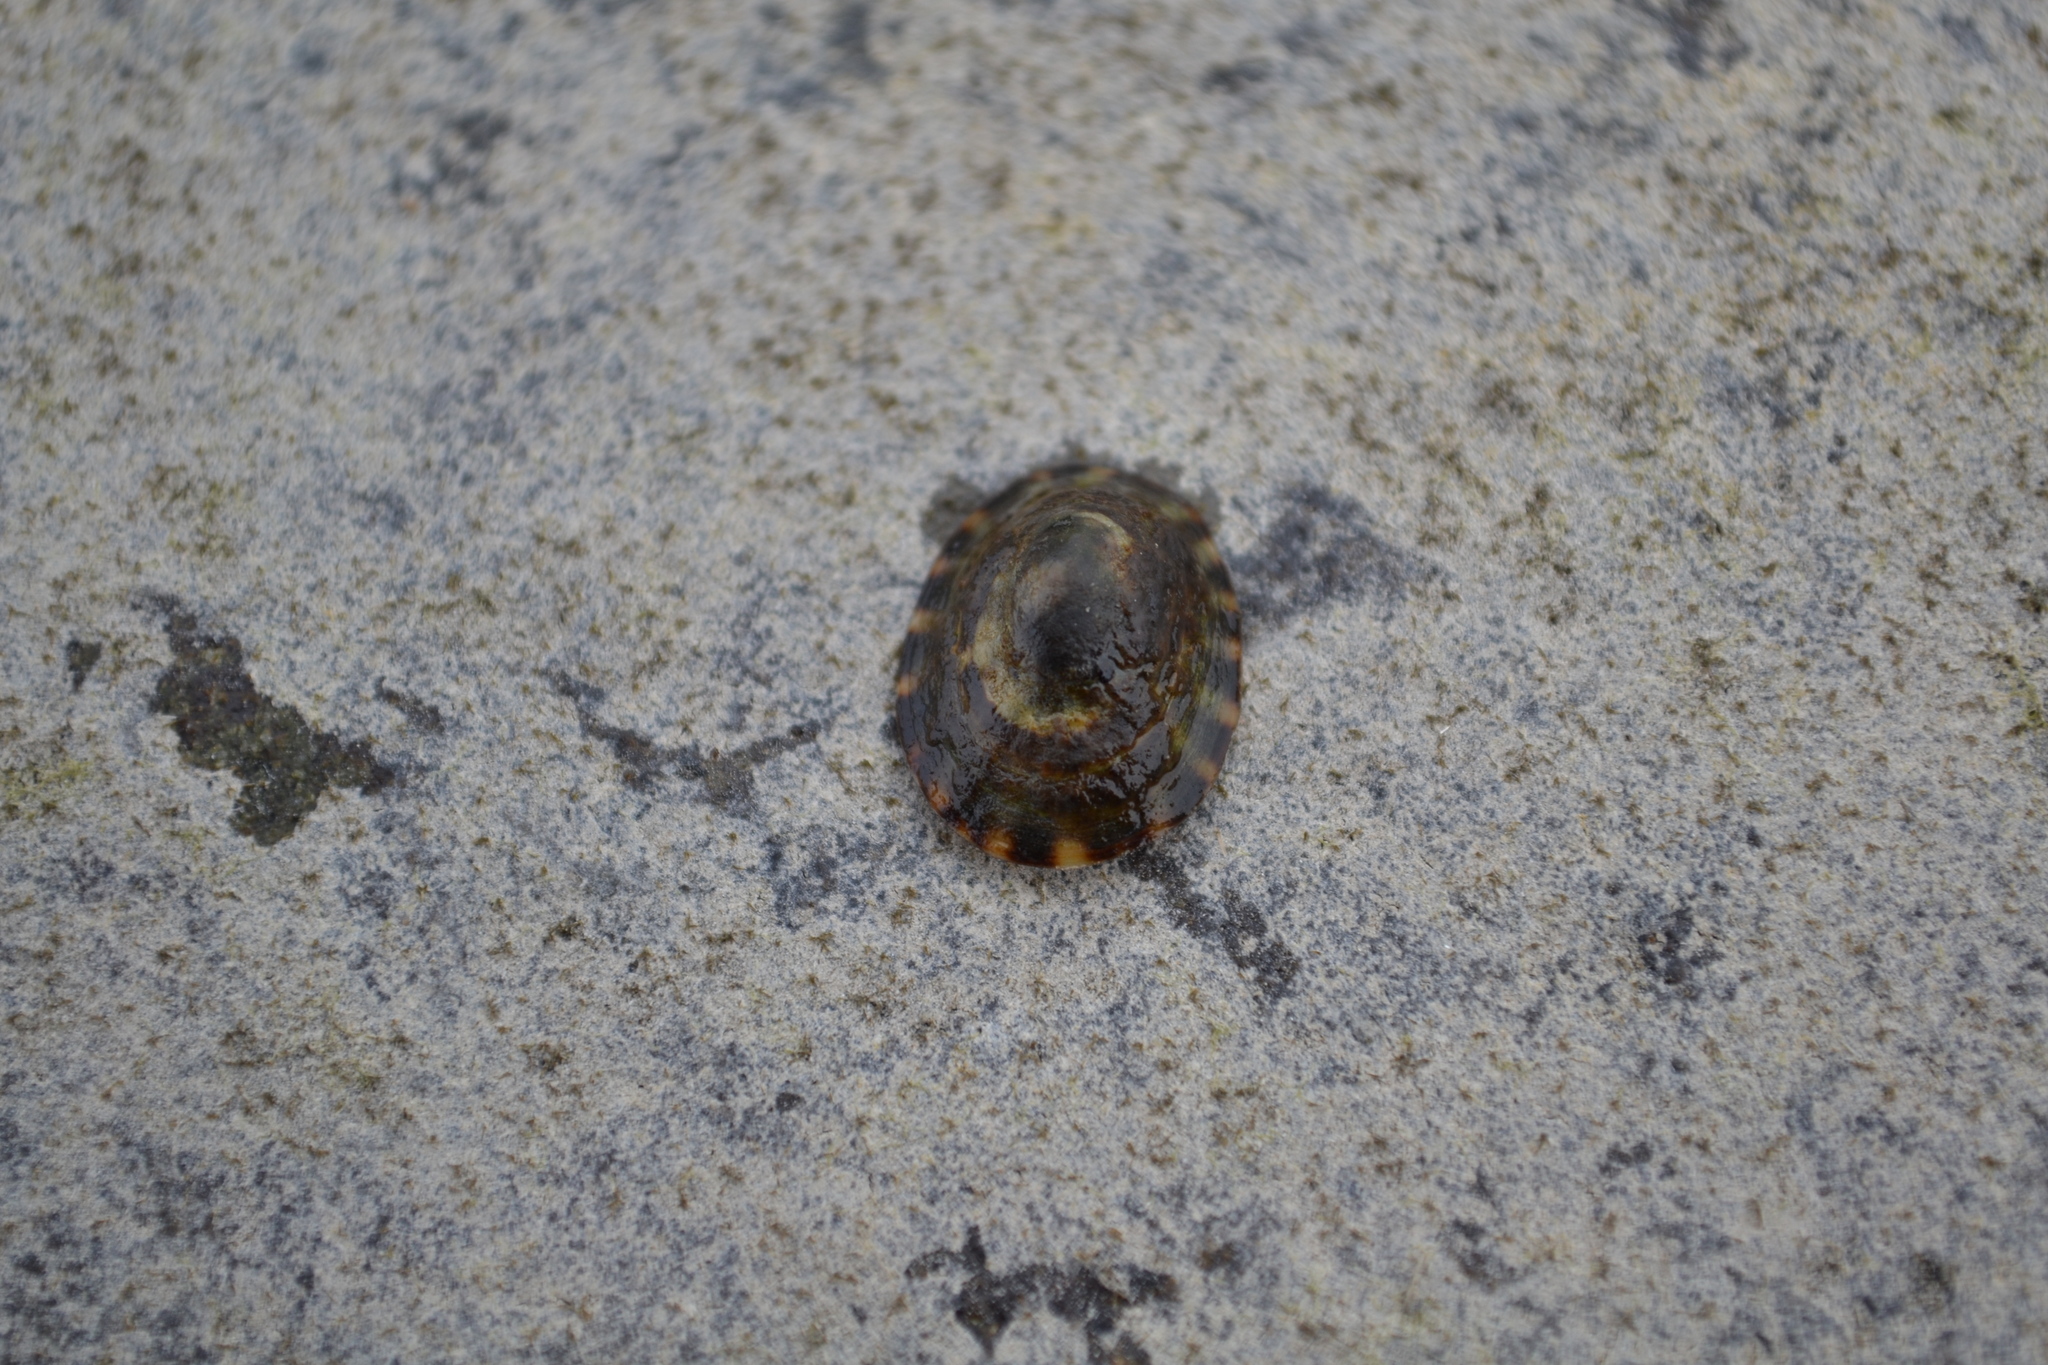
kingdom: Animalia
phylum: Mollusca
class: Gastropoda
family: Lottiidae
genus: Testudinalia
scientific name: Testudinalia testudinalis
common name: Common tortoiseshell limpet
